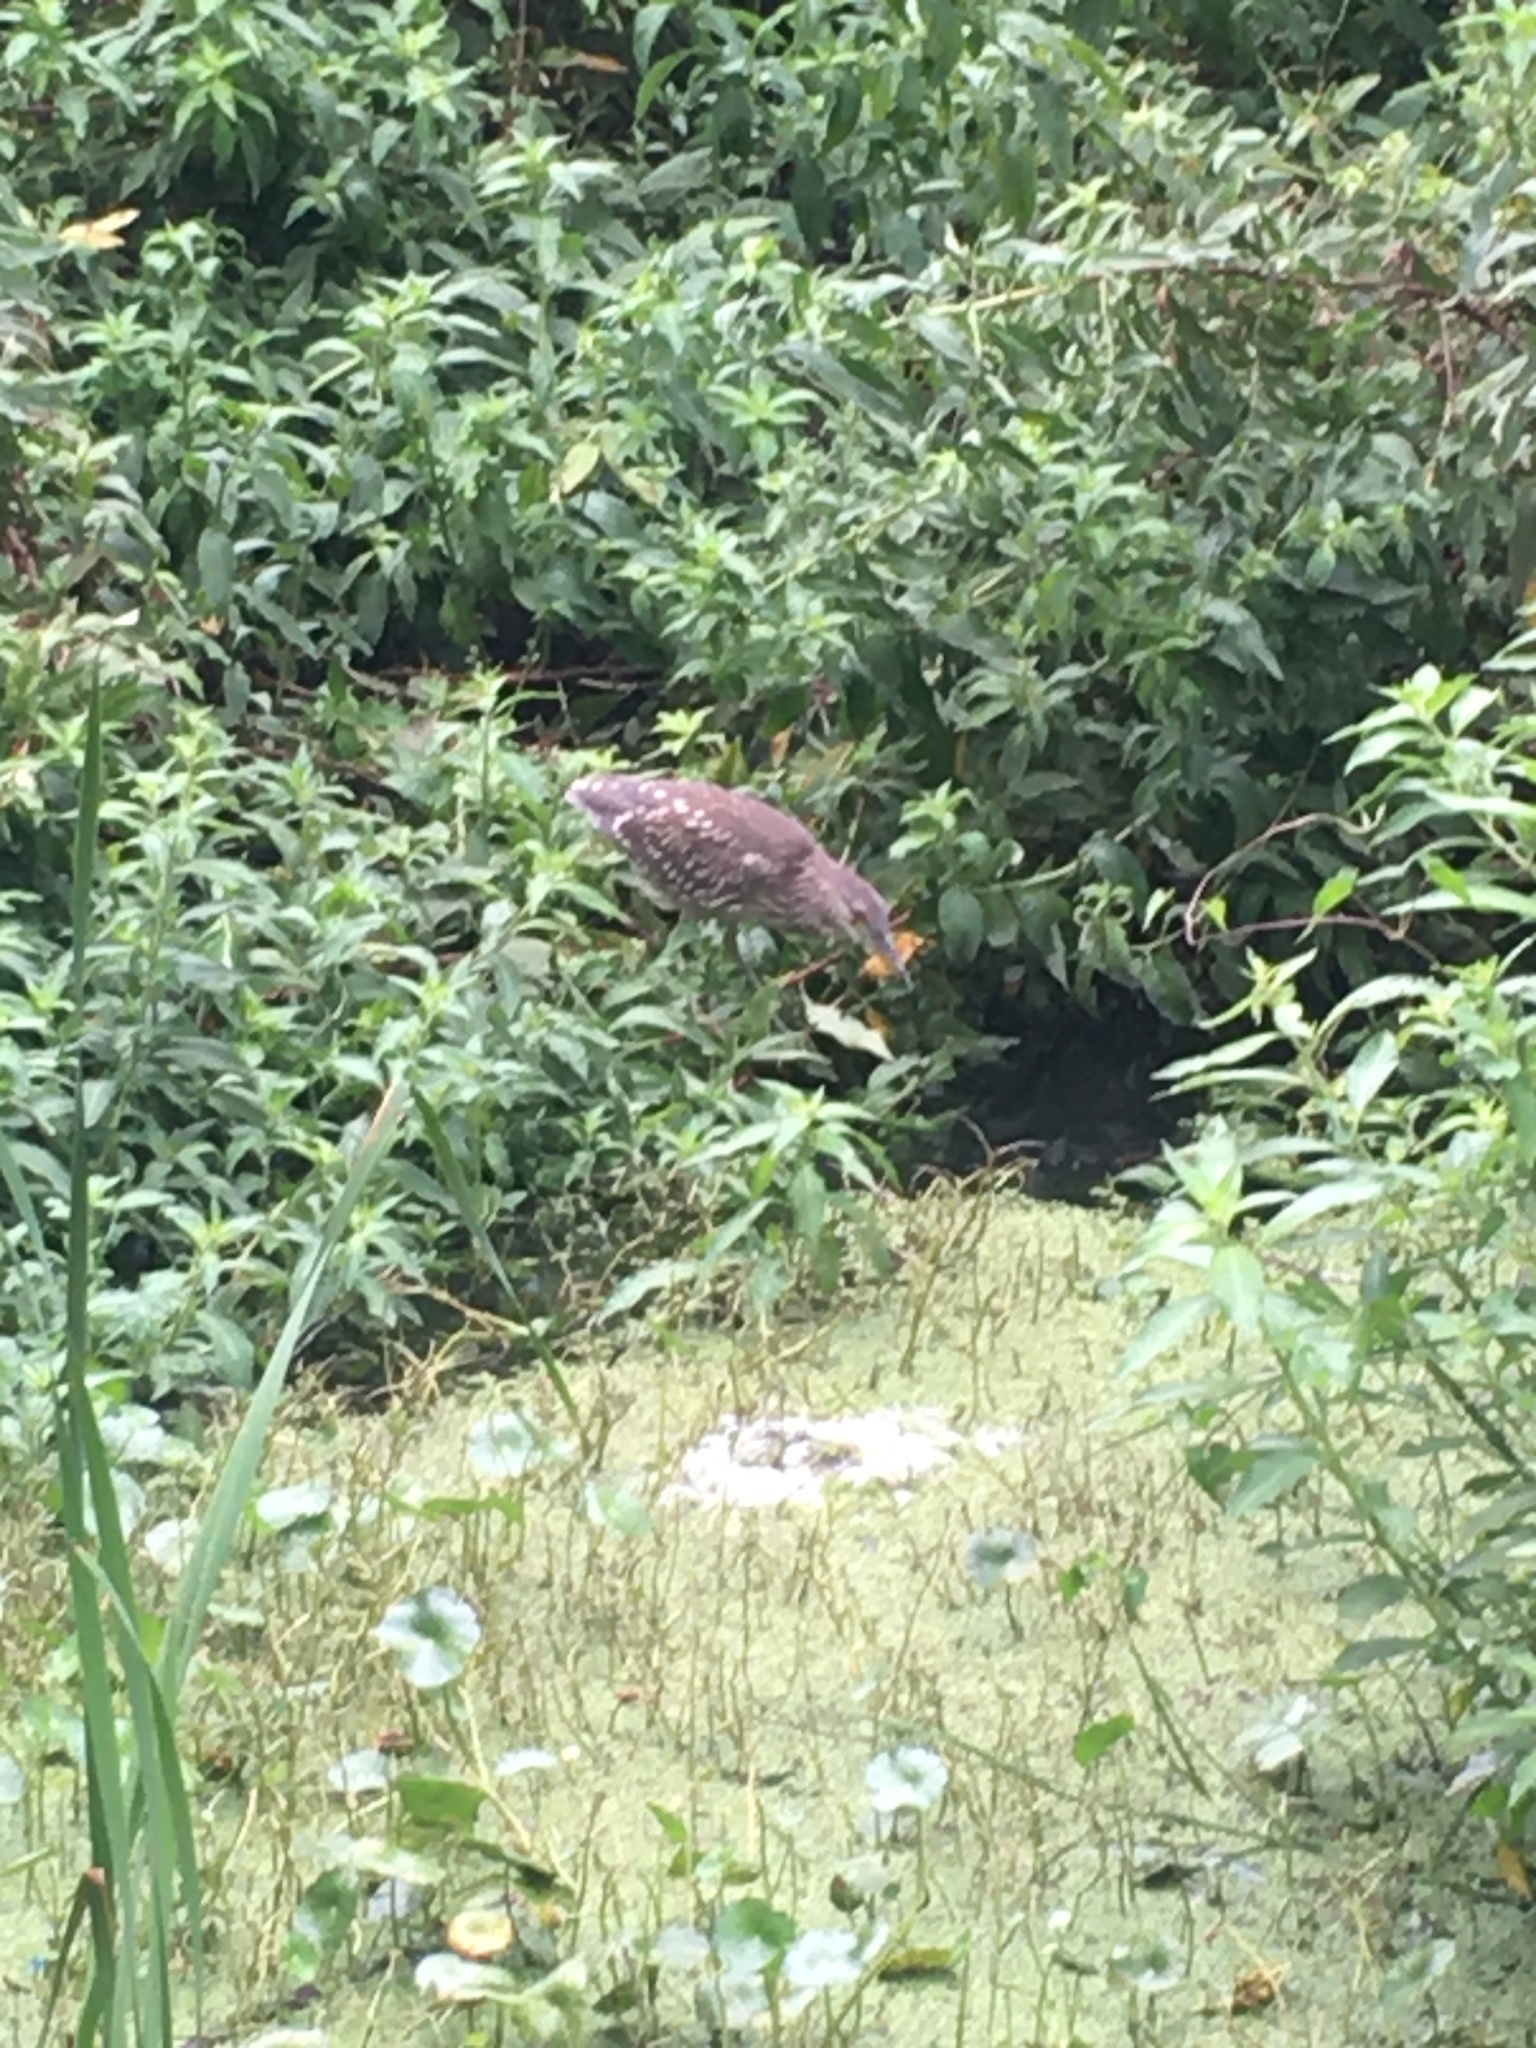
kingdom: Animalia
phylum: Chordata
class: Aves
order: Pelecaniformes
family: Ardeidae
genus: Nycticorax
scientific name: Nycticorax nycticorax
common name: Black-crowned night heron
